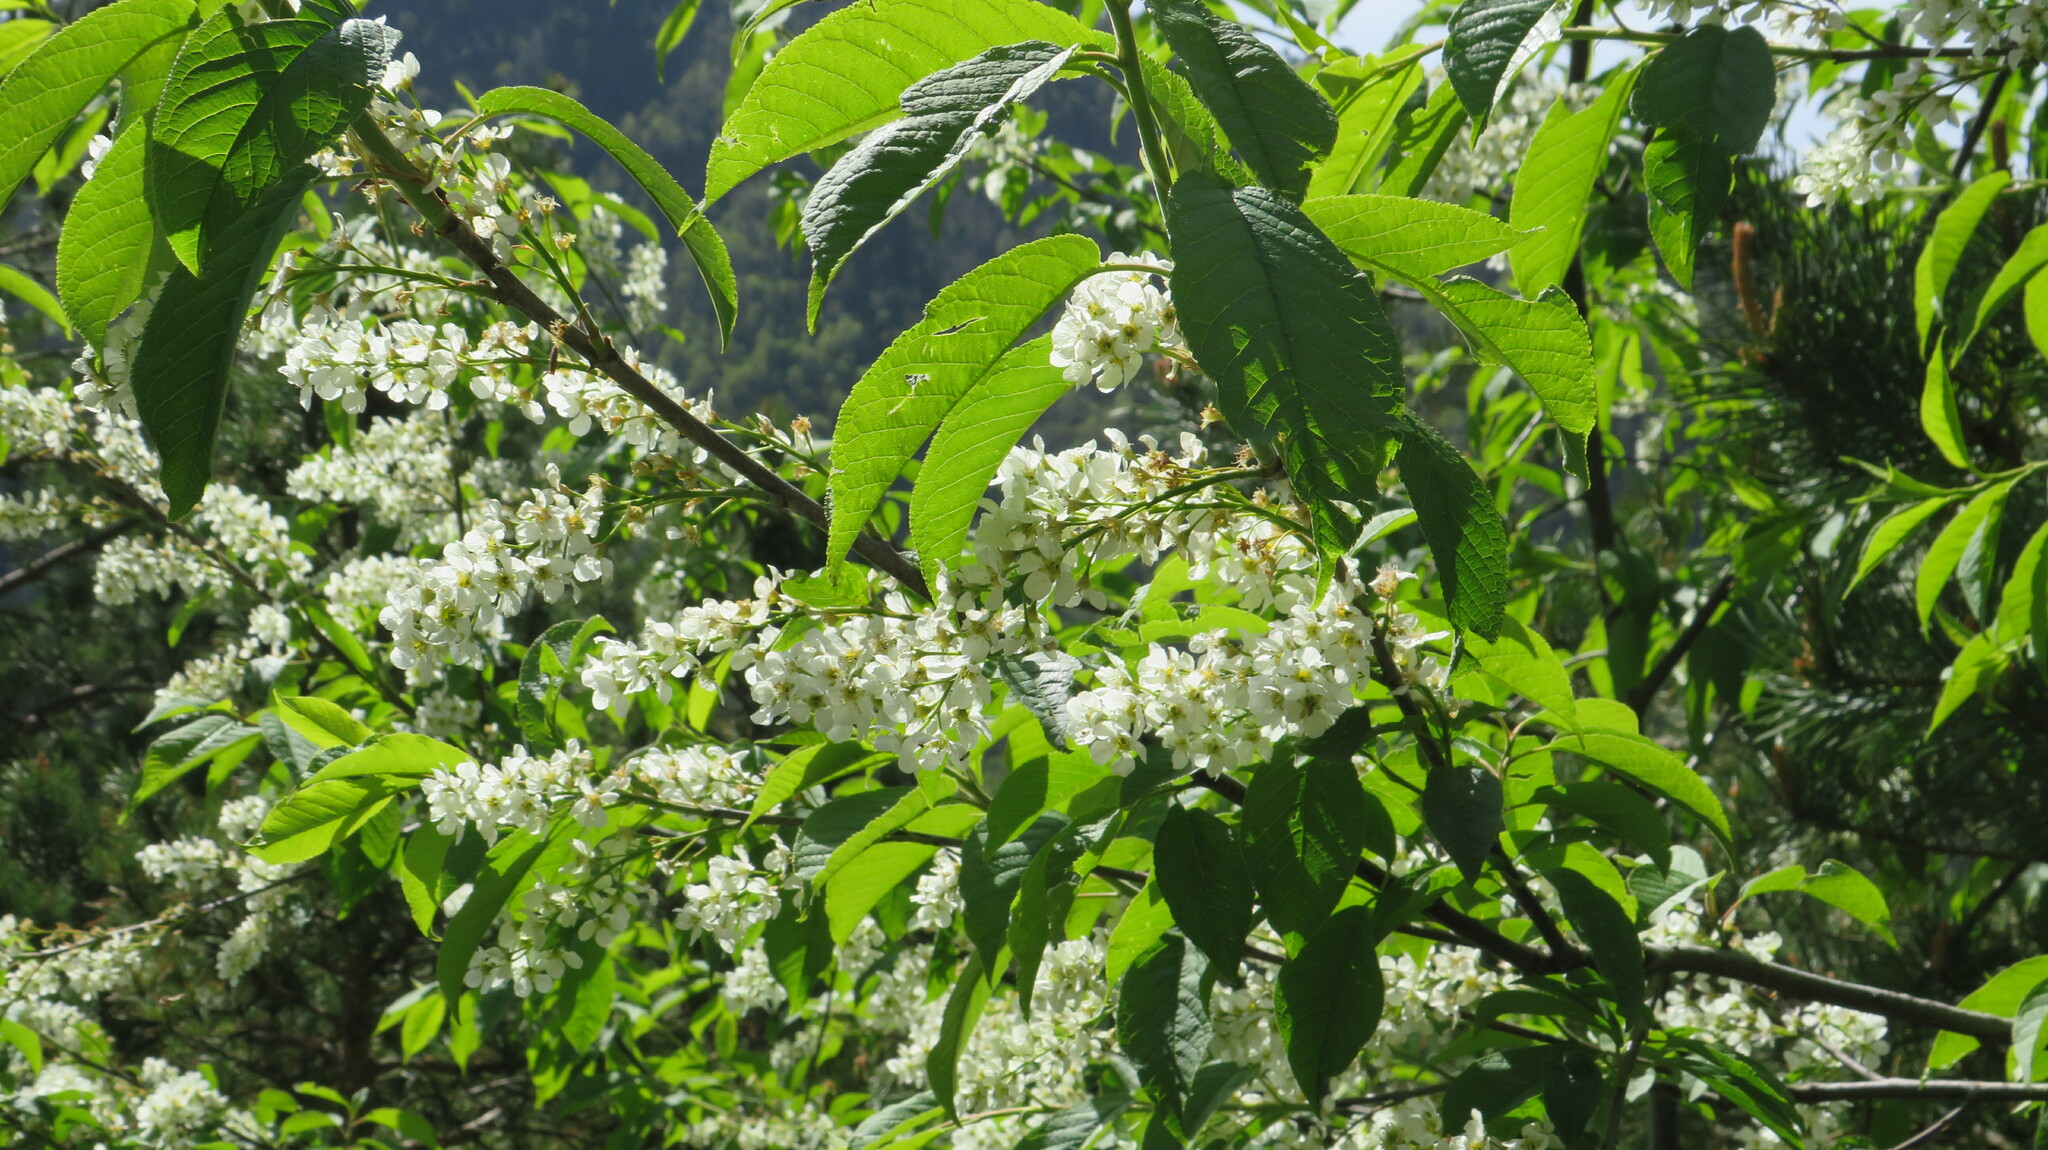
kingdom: Plantae
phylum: Tracheophyta
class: Magnoliopsida
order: Rosales
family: Rosaceae
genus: Prunus
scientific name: Prunus padus
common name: Bird cherry
